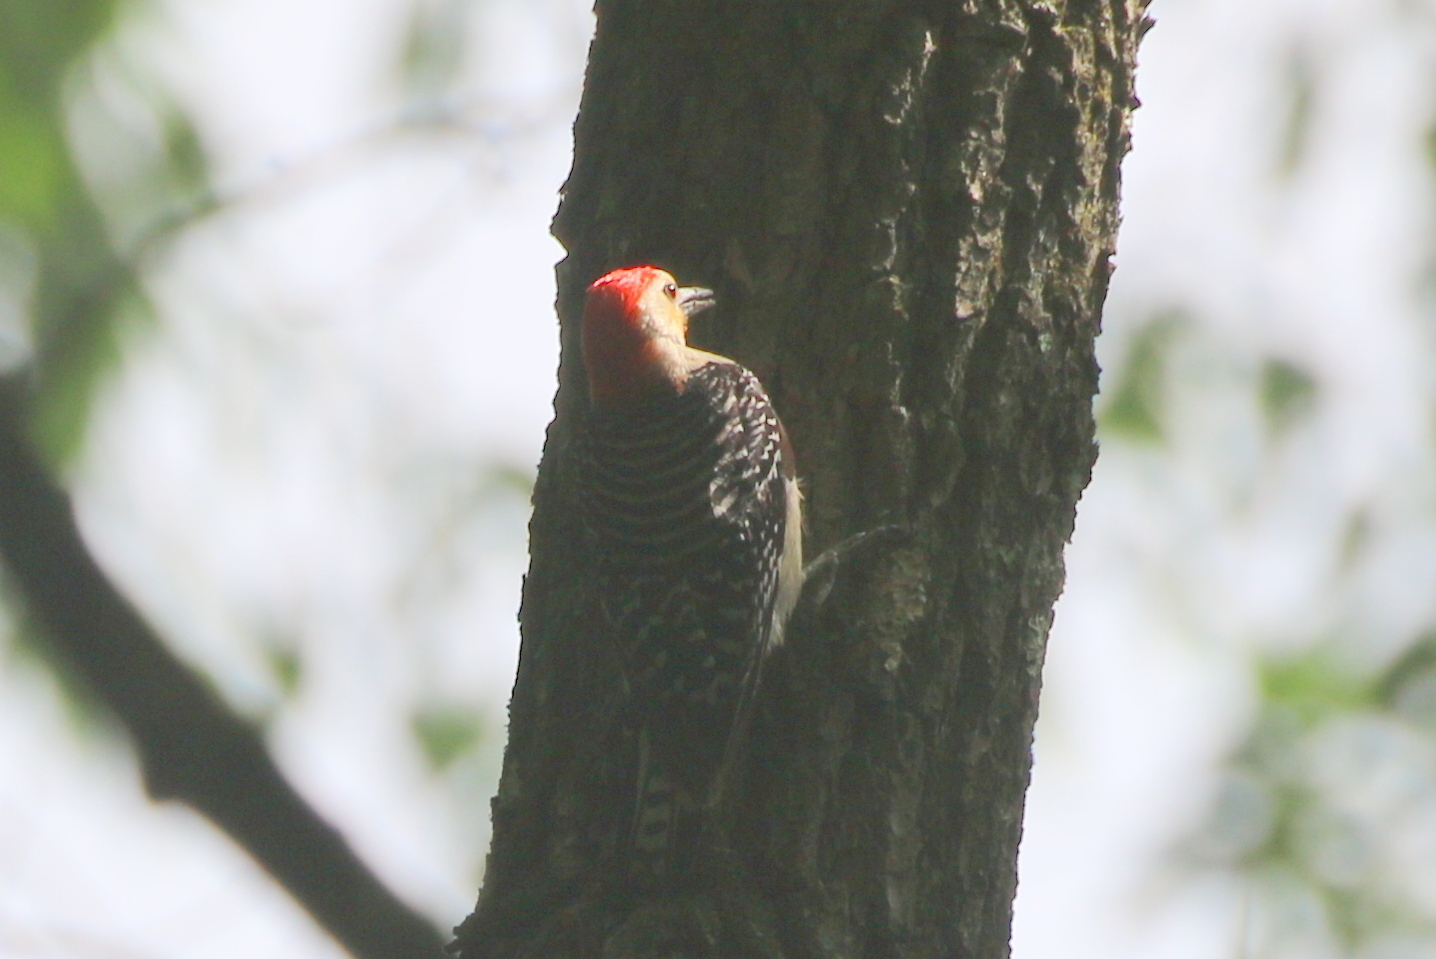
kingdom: Animalia
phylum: Chordata
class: Aves
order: Piciformes
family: Picidae
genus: Melanerpes
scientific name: Melanerpes carolinus
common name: Red-bellied woodpecker
